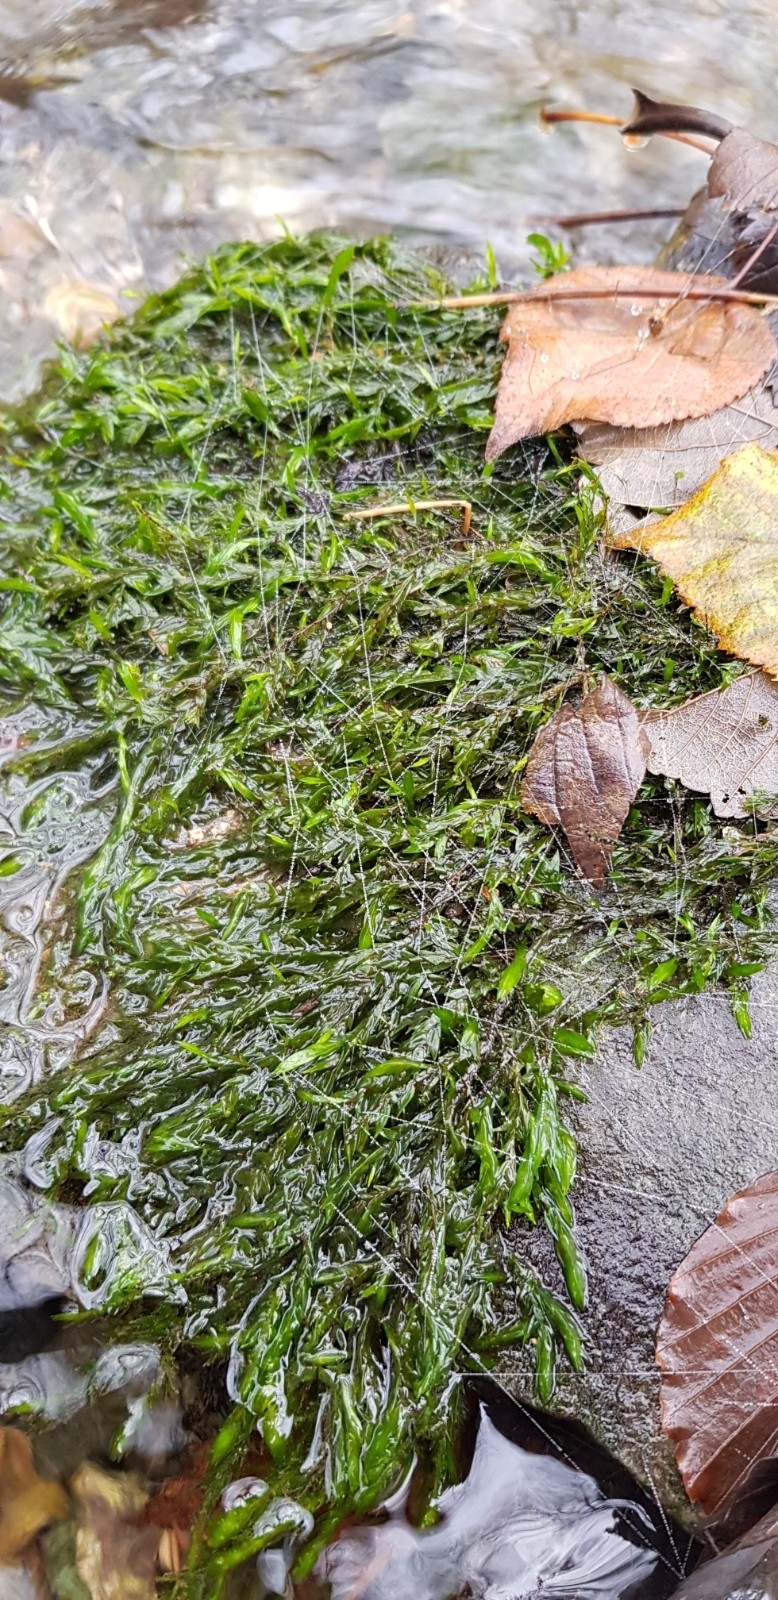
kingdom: Plantae
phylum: Bryophyta
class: Bryopsida
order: Hypnales
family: Fontinalaceae
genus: Fontinalis
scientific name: Fontinalis antipyretica
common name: Greater water-moss
